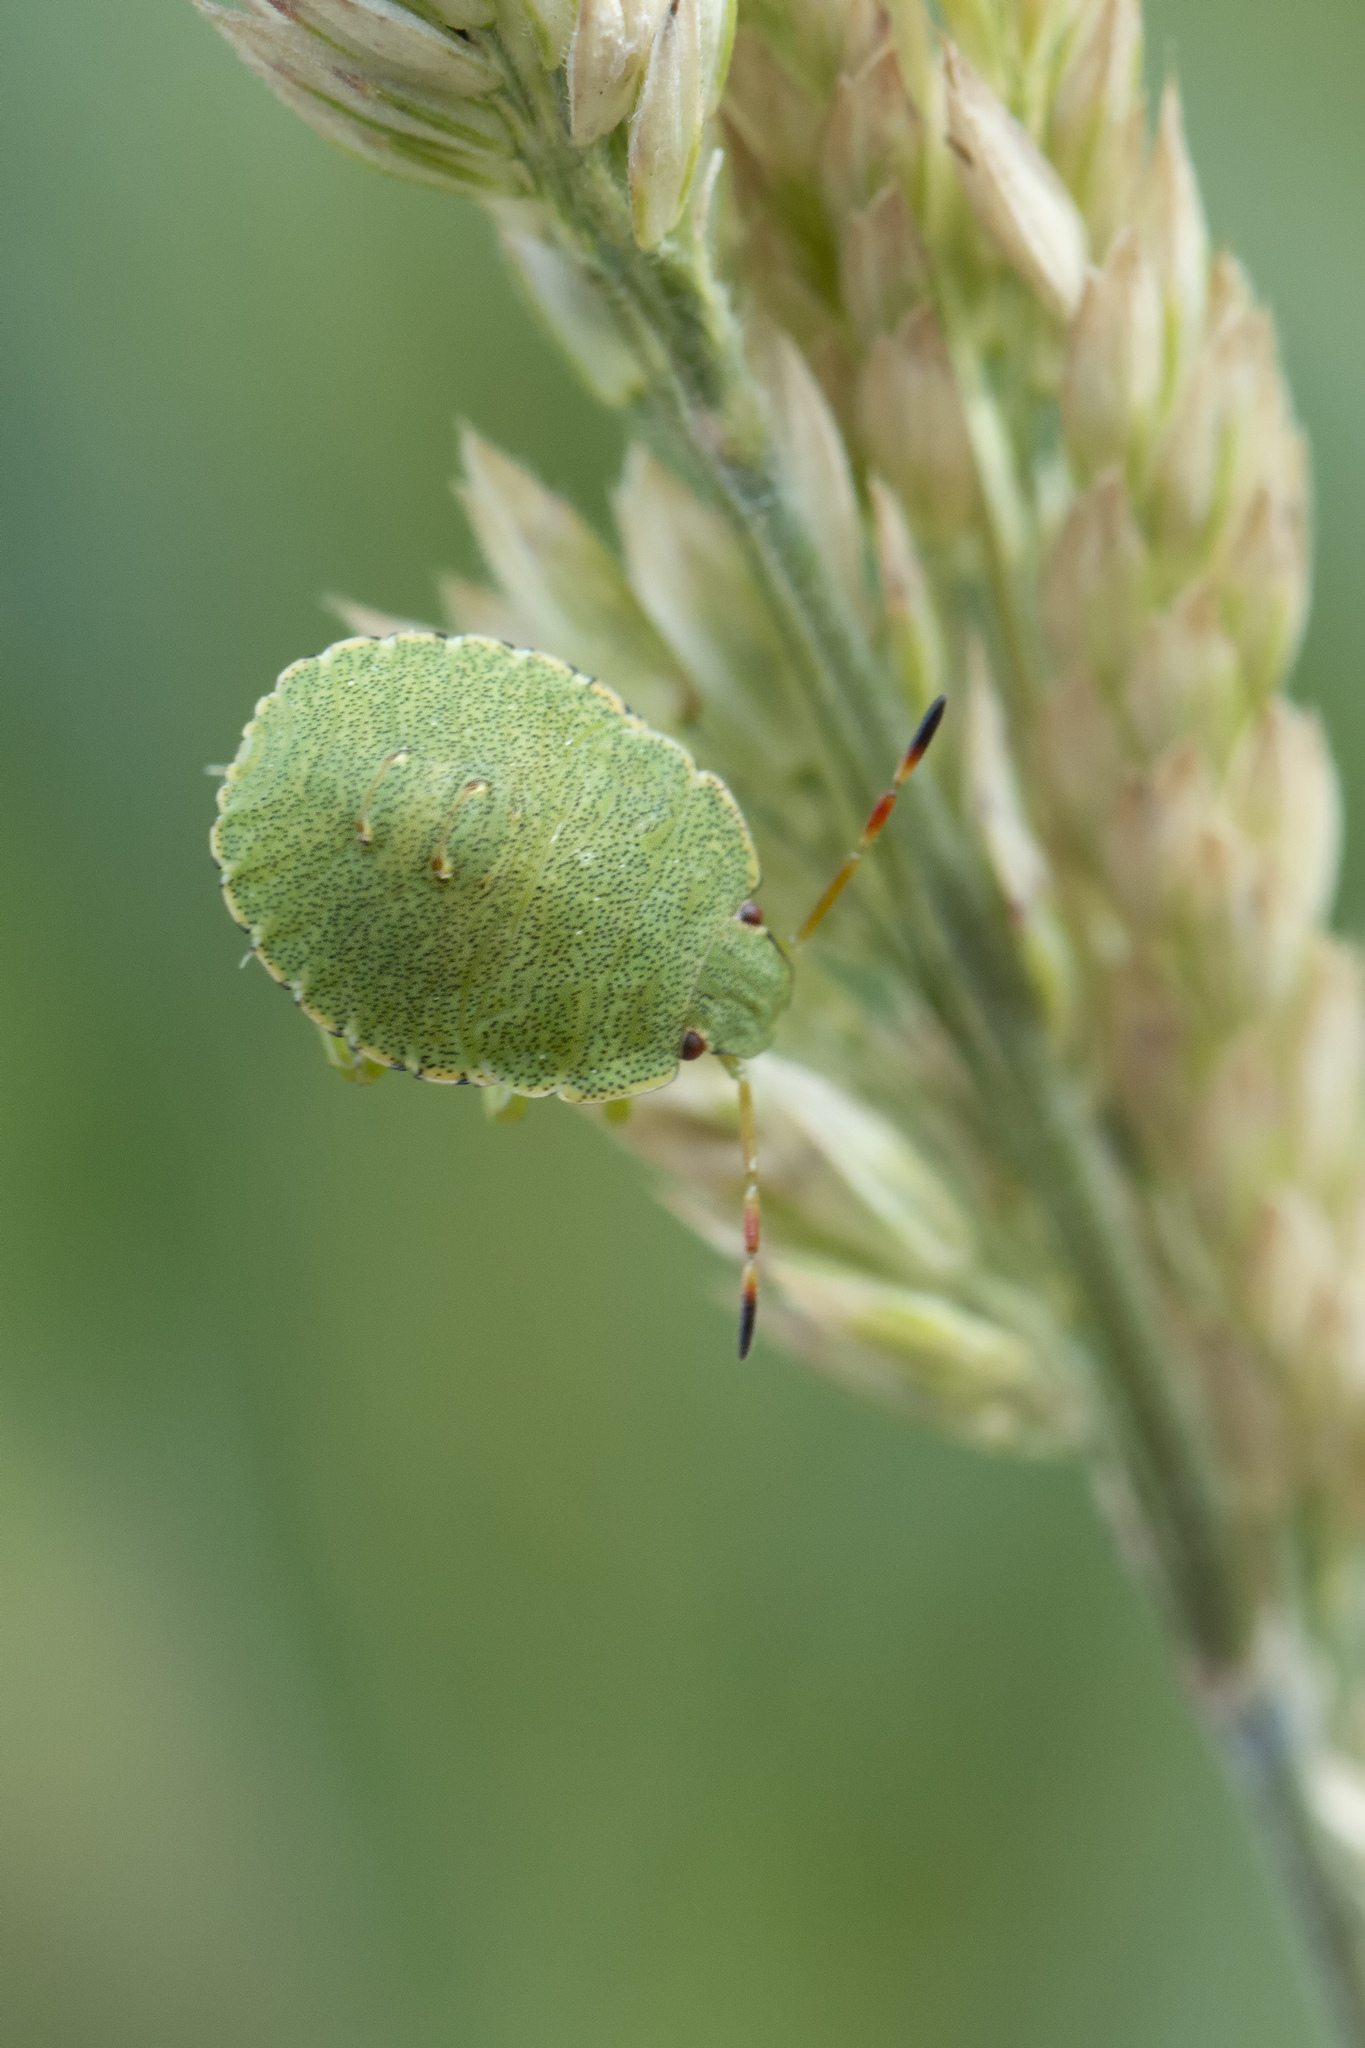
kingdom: Animalia
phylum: Arthropoda
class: Insecta
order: Hemiptera
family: Pentatomidae
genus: Palomena
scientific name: Palomena prasina
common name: Green shieldbug
